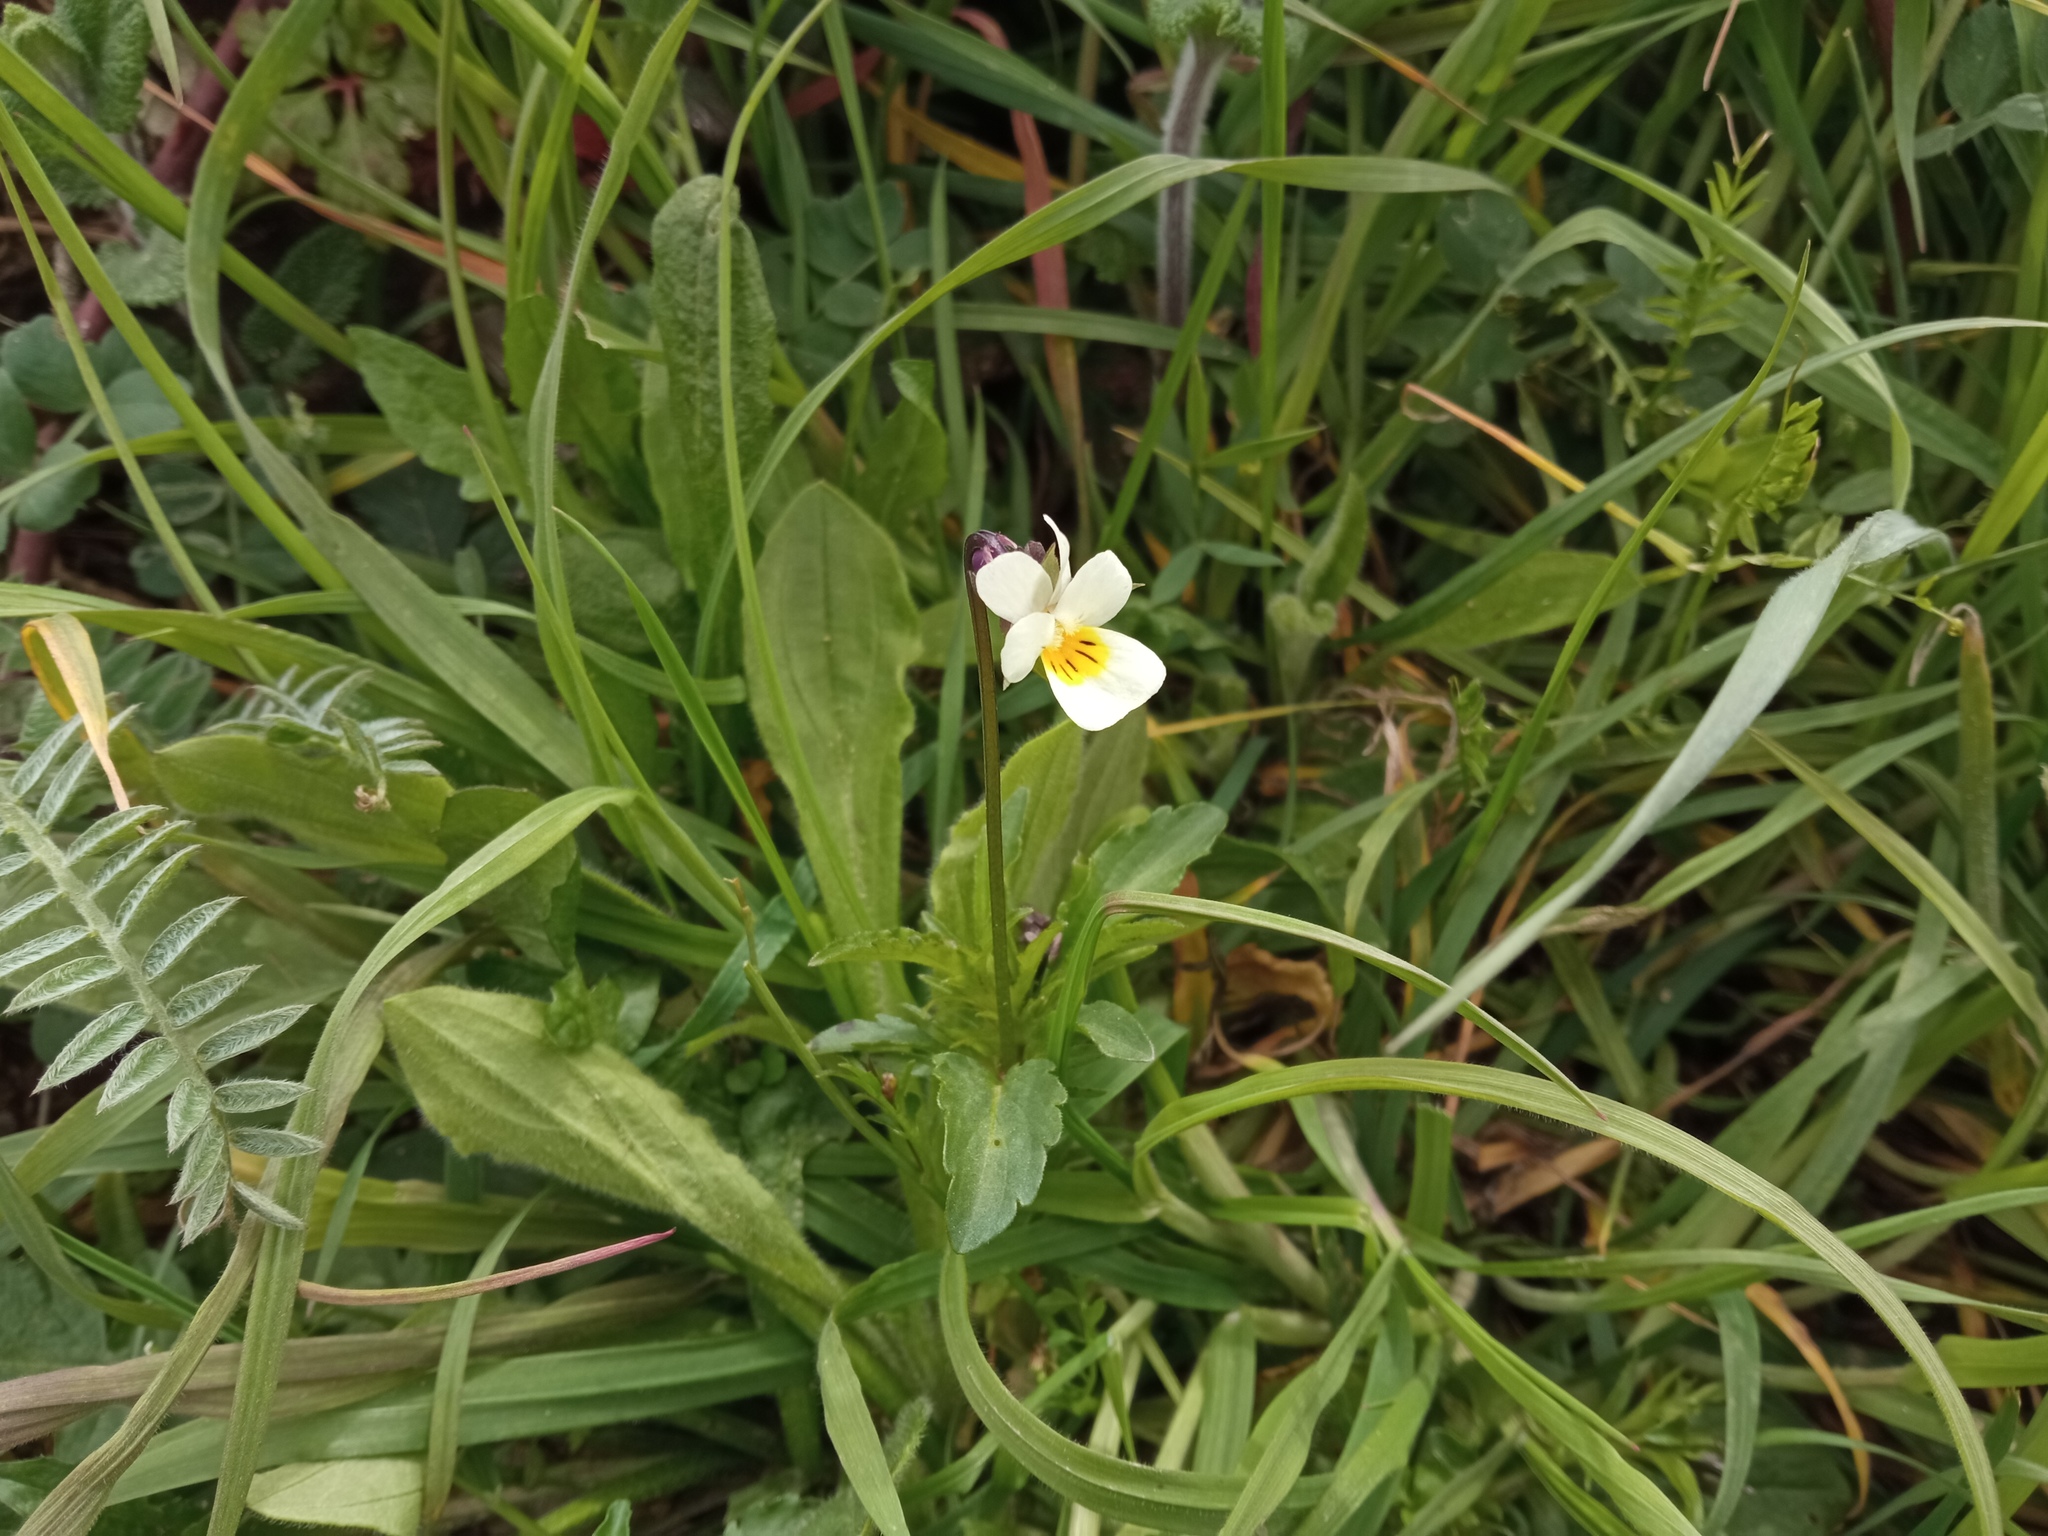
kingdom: Plantae
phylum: Tracheophyta
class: Magnoliopsida
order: Malpighiales
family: Violaceae
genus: Viola
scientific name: Viola arvensis
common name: Field pansy
